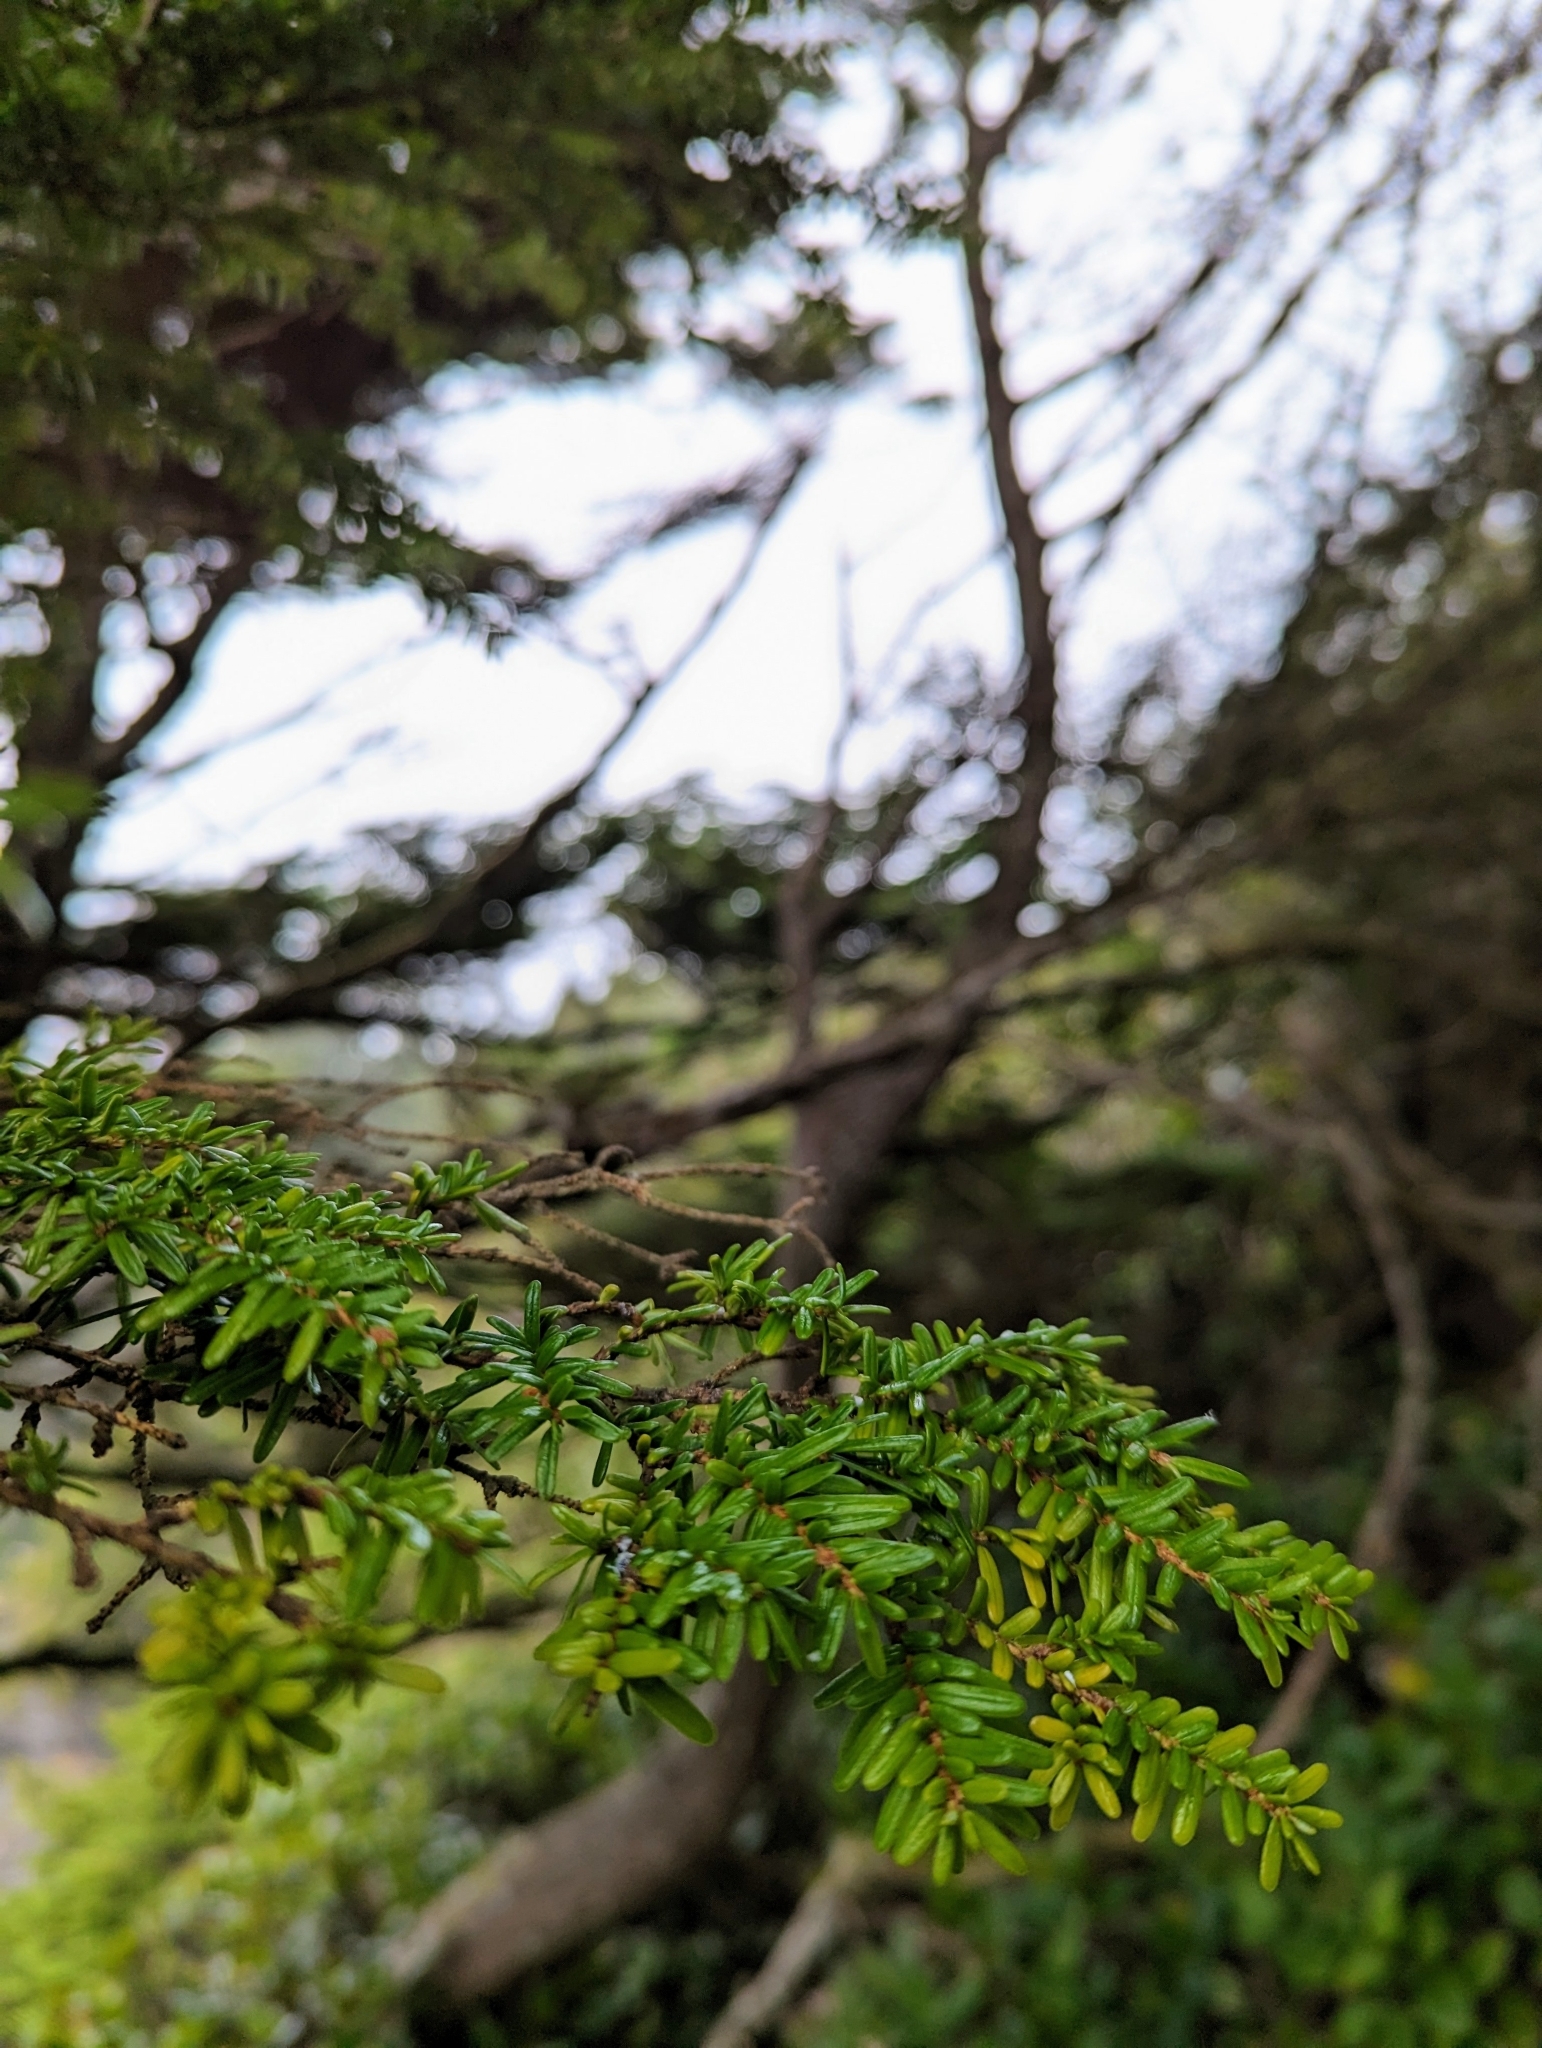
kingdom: Plantae
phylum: Tracheophyta
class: Pinopsida
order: Pinales
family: Pinaceae
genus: Tsuga
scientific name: Tsuga heterophylla
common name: Western hemlock
